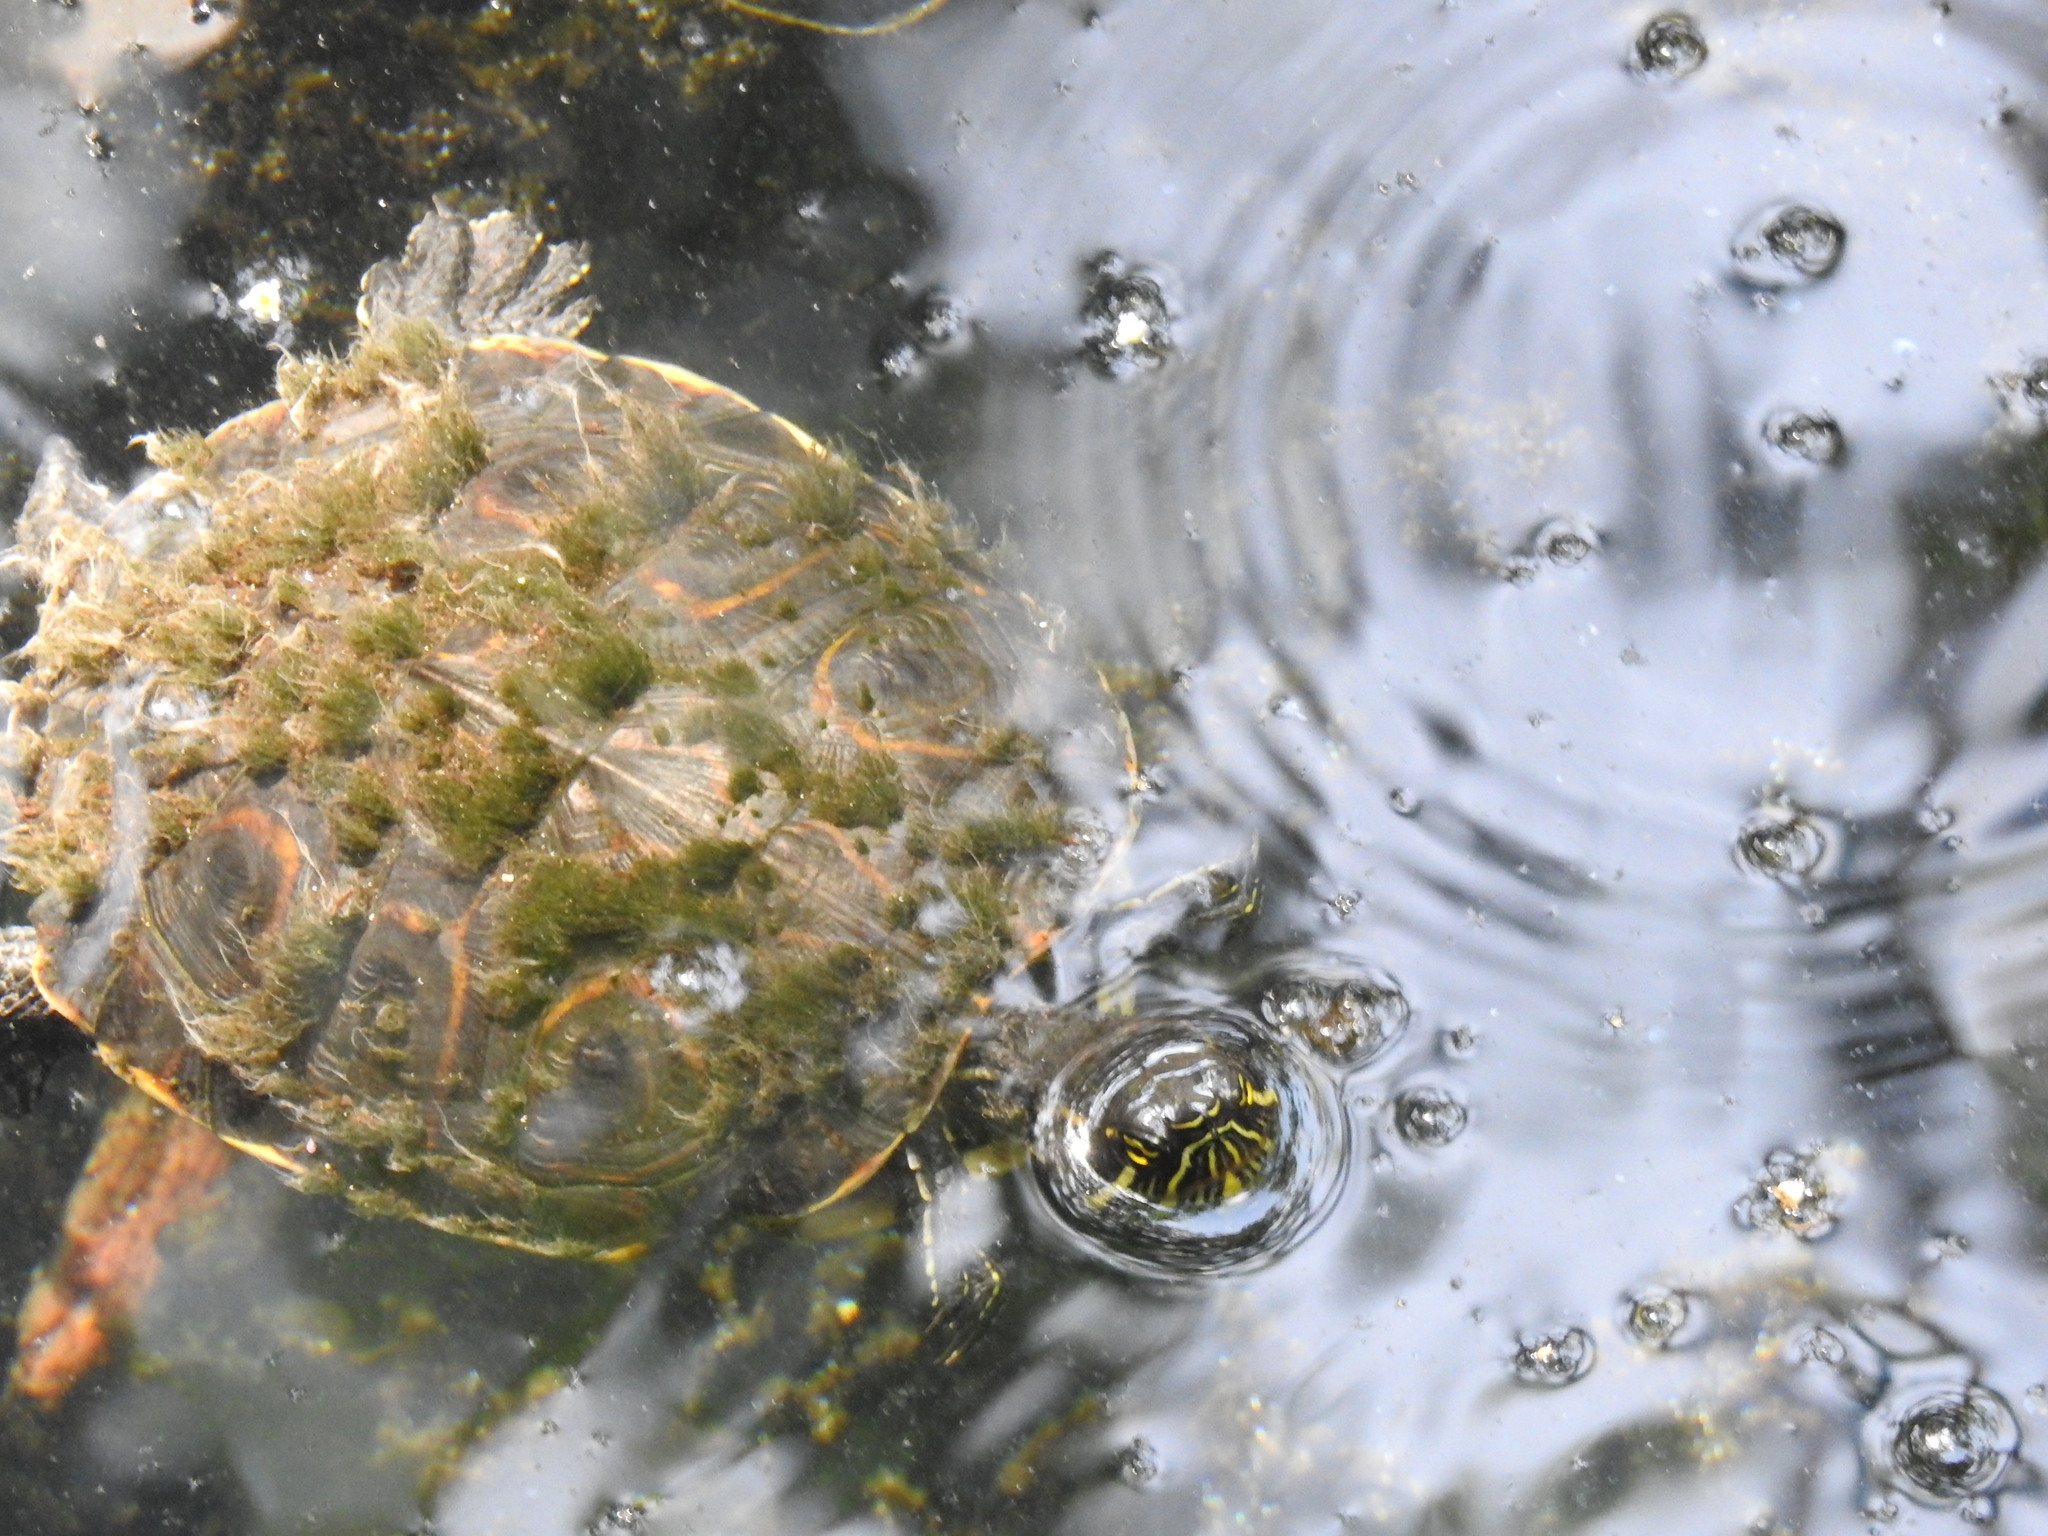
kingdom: Animalia
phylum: Chordata
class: Testudines
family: Emydidae
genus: Trachemys
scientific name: Trachemys venusta
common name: Mesoamerican slider
